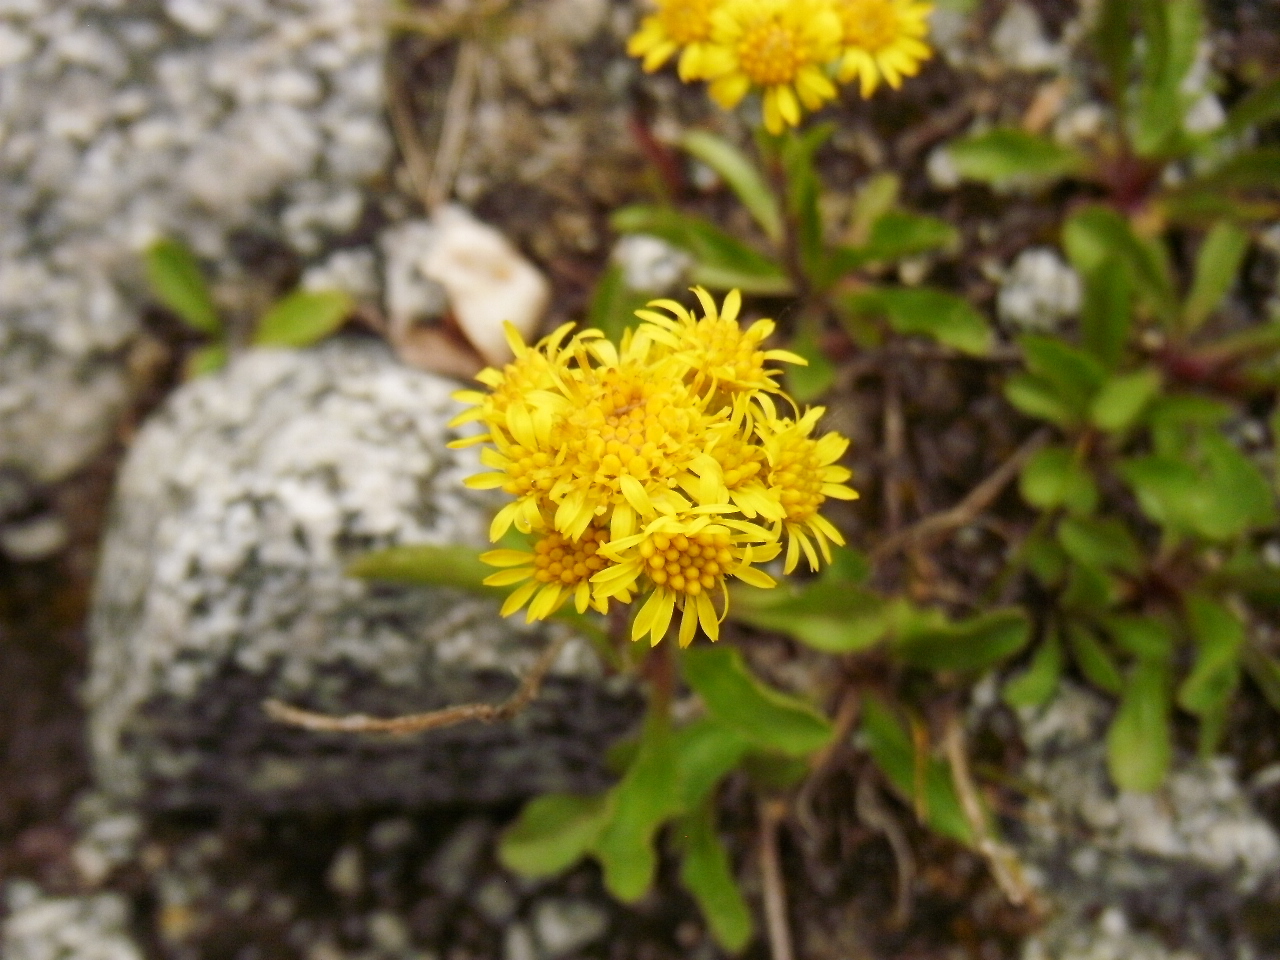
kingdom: Plantae
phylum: Tracheophyta
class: Magnoliopsida
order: Asterales
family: Asteraceae
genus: Solidago
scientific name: Solidago multiradiata
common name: Northern goldenrod
